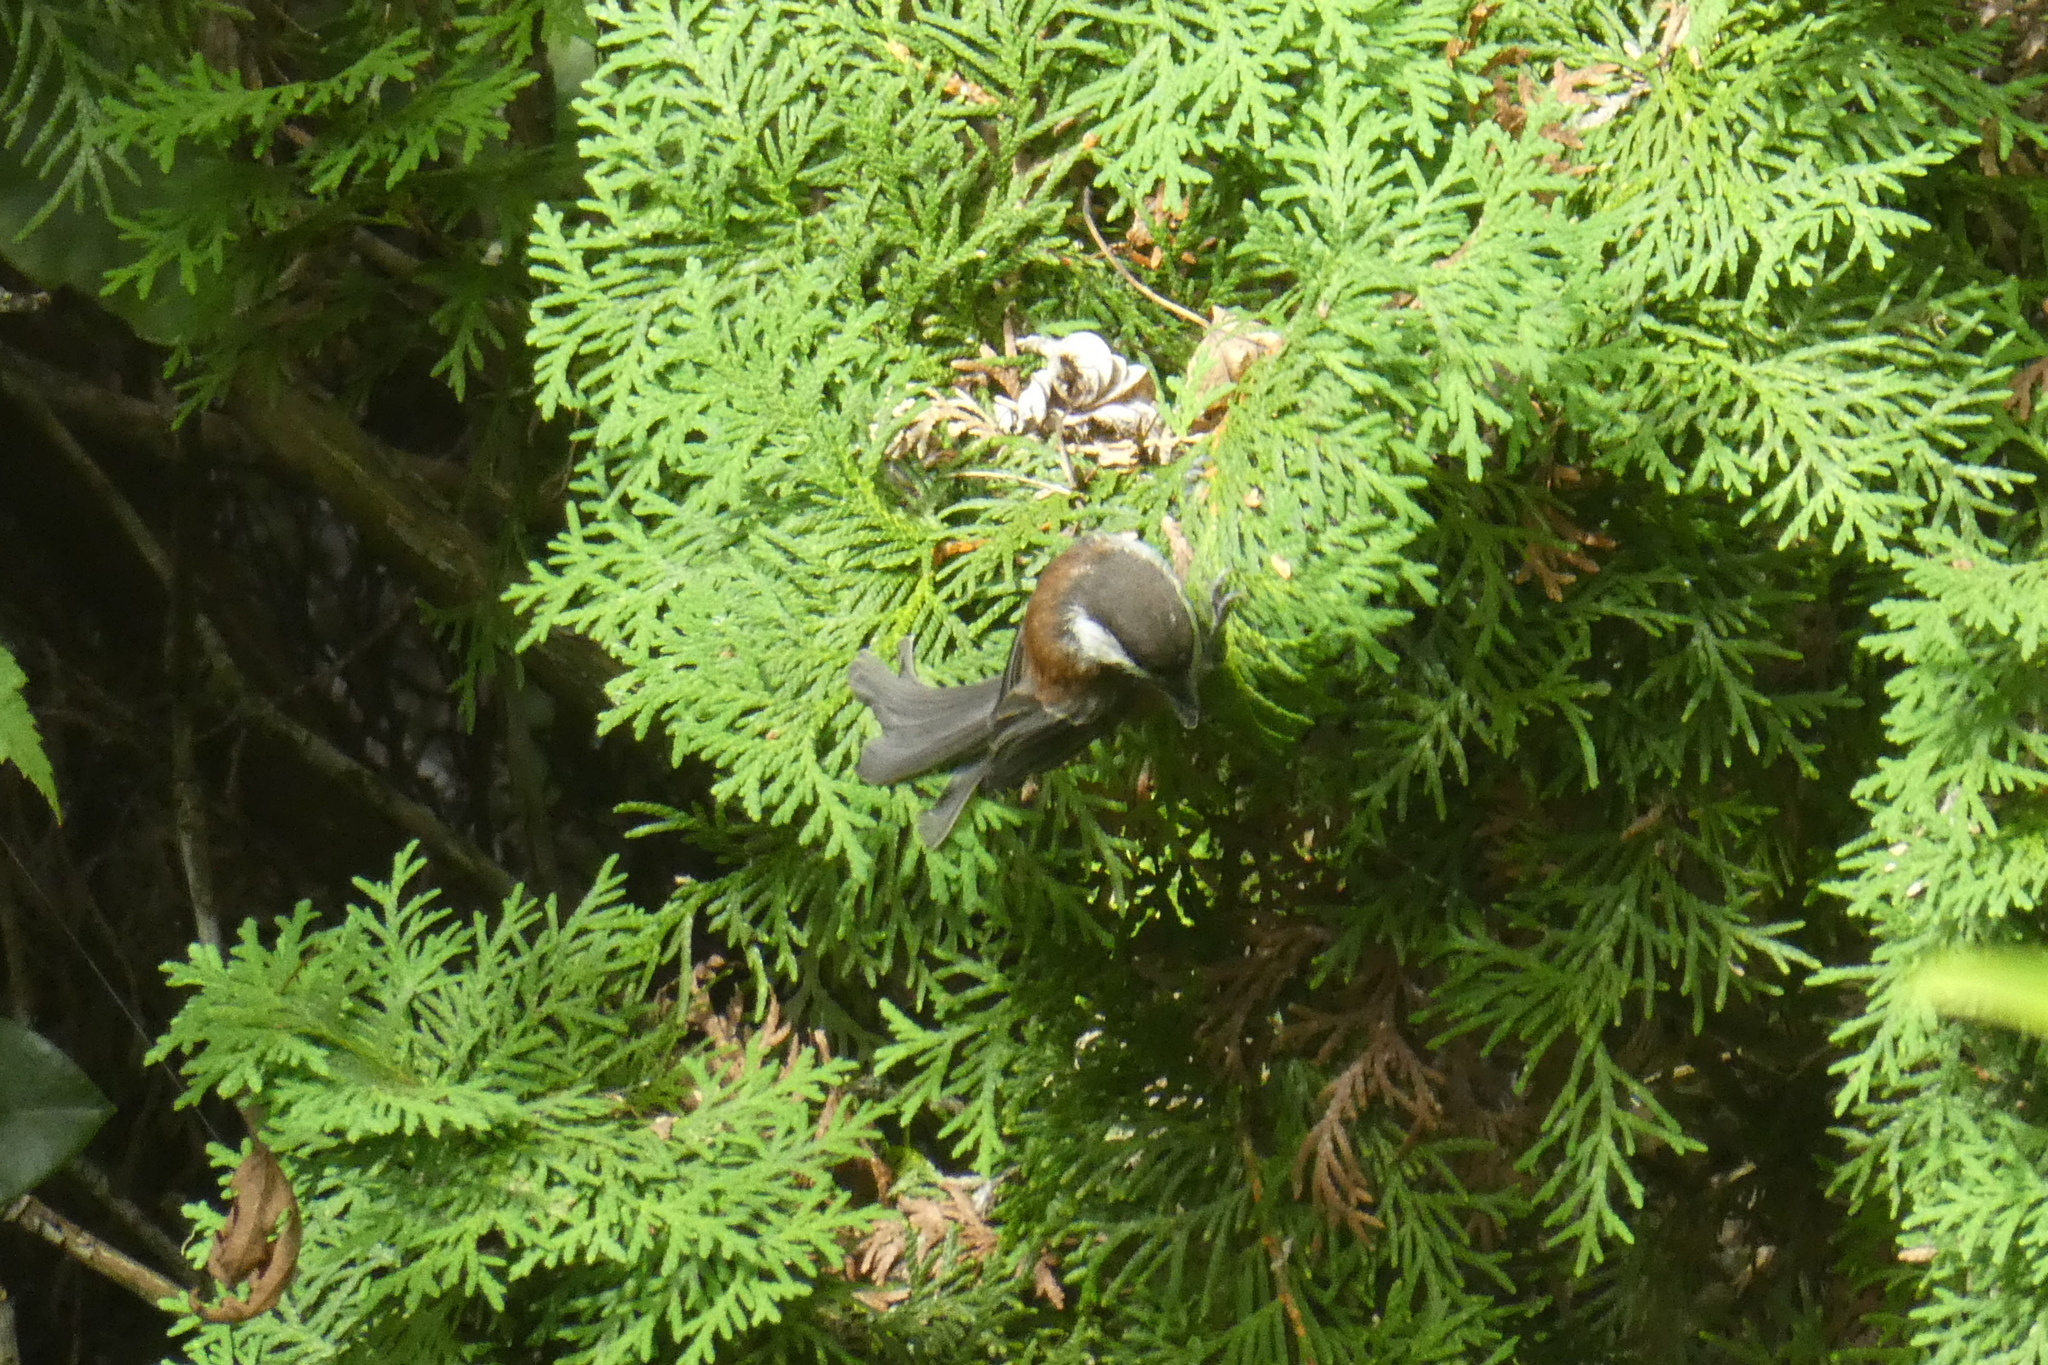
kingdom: Animalia
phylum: Chordata
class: Aves
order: Passeriformes
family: Paridae
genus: Poecile
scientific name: Poecile rufescens
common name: Chestnut-backed chickadee
